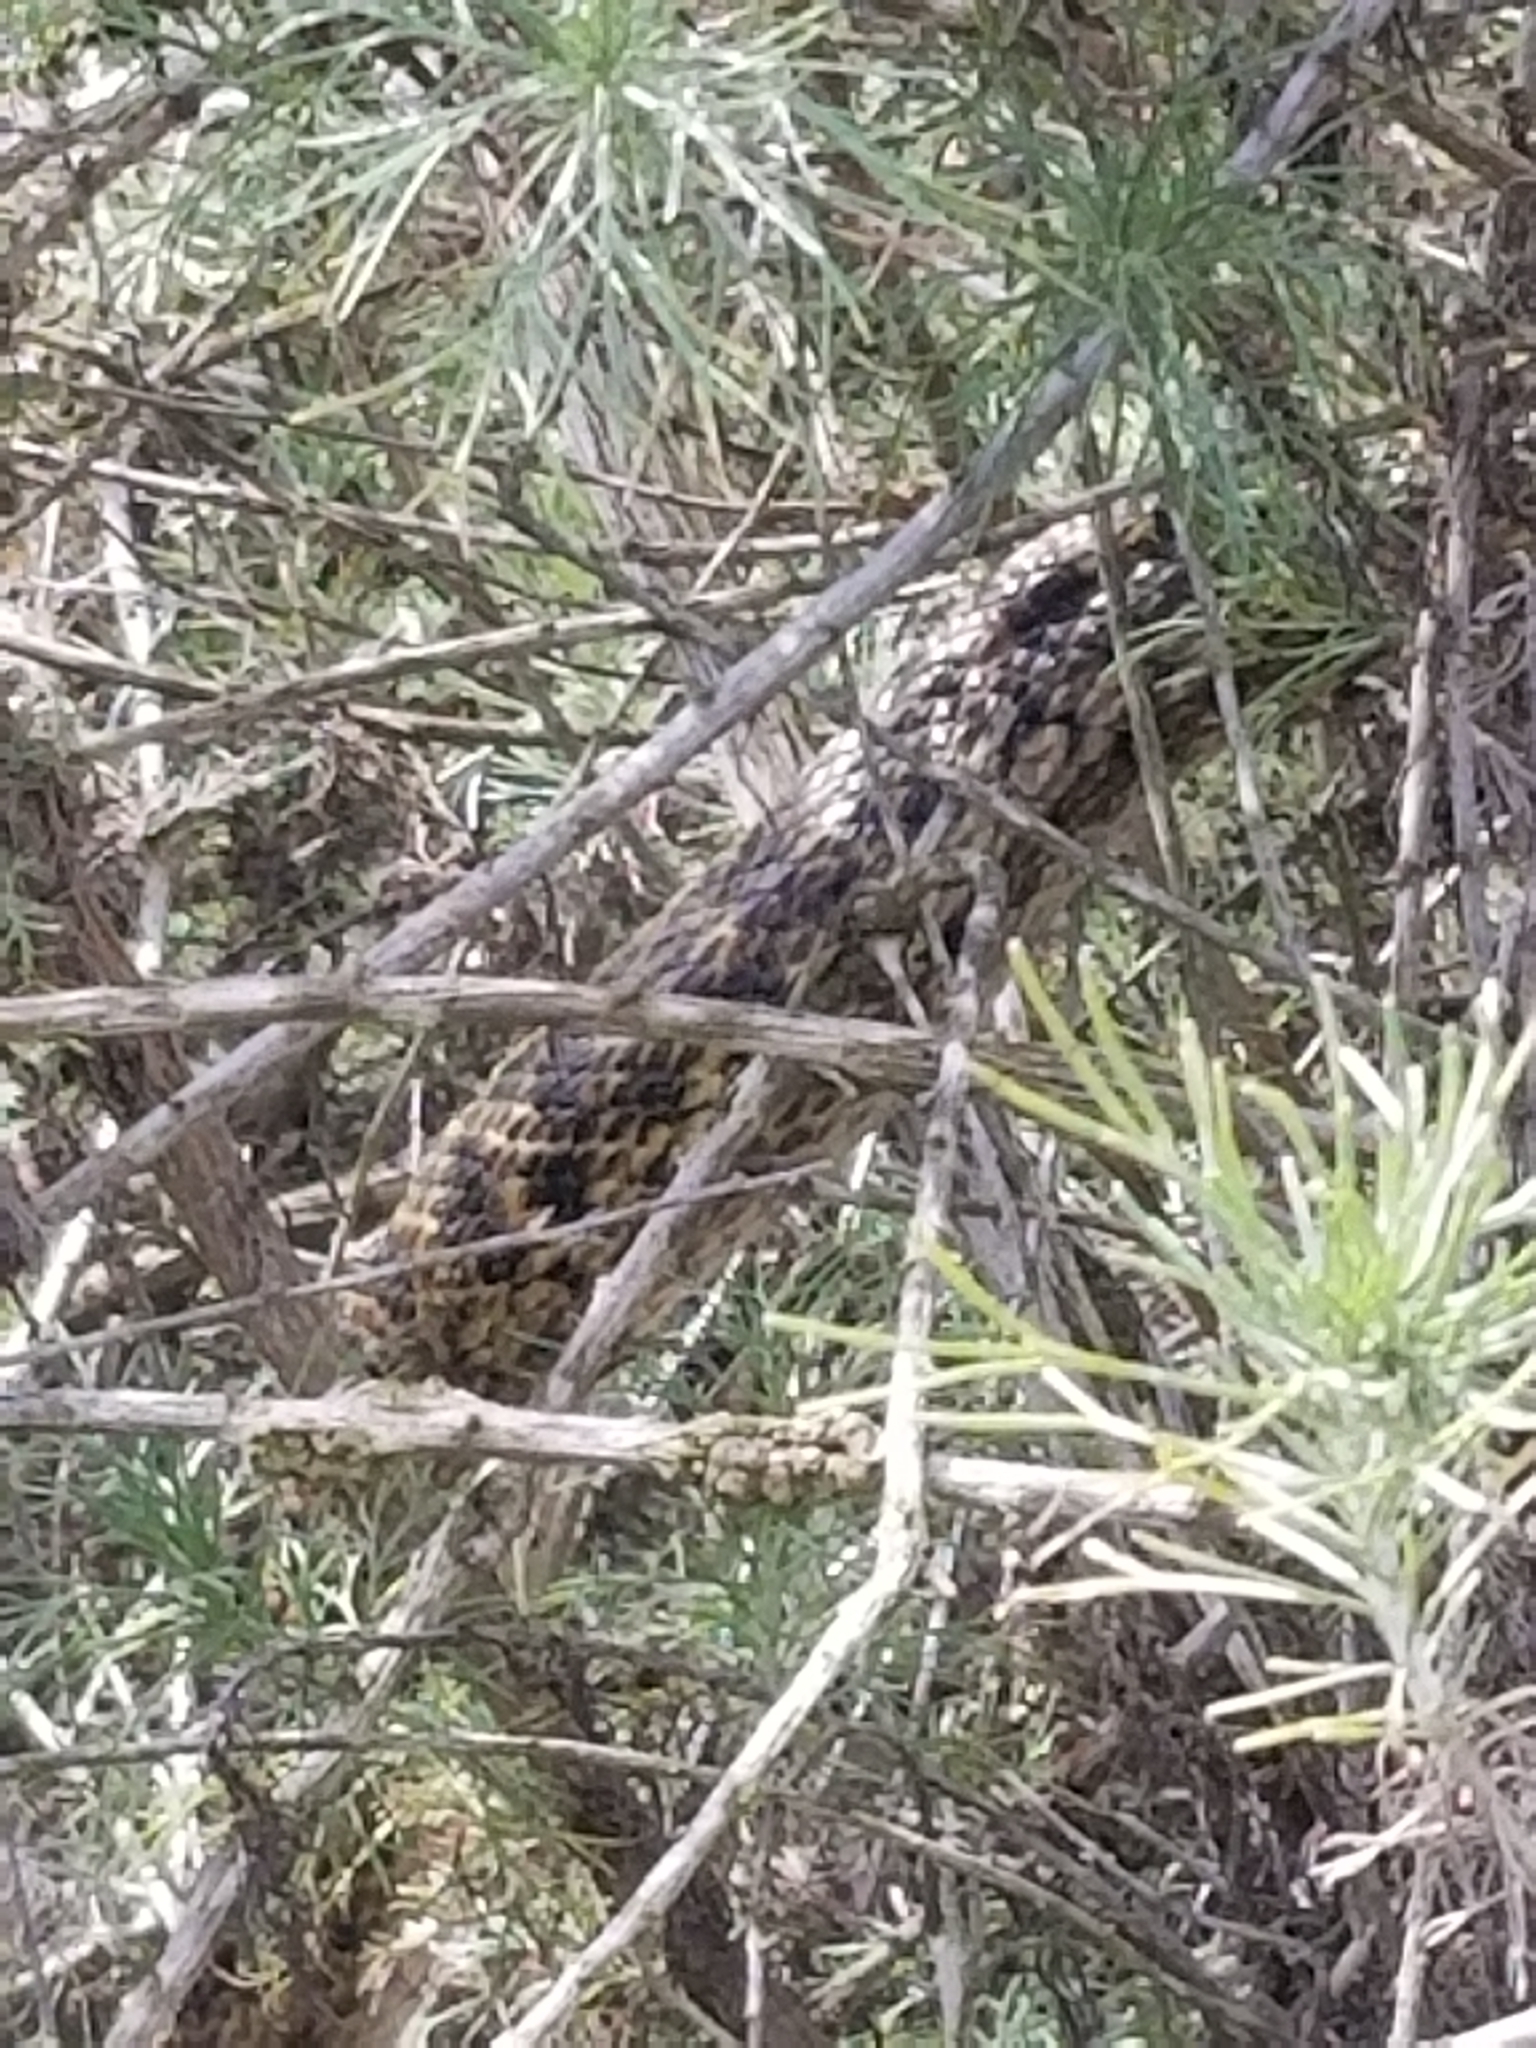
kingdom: Animalia
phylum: Chordata
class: Squamata
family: Colubridae
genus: Pituophis
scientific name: Pituophis catenifer
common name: Gopher snake
